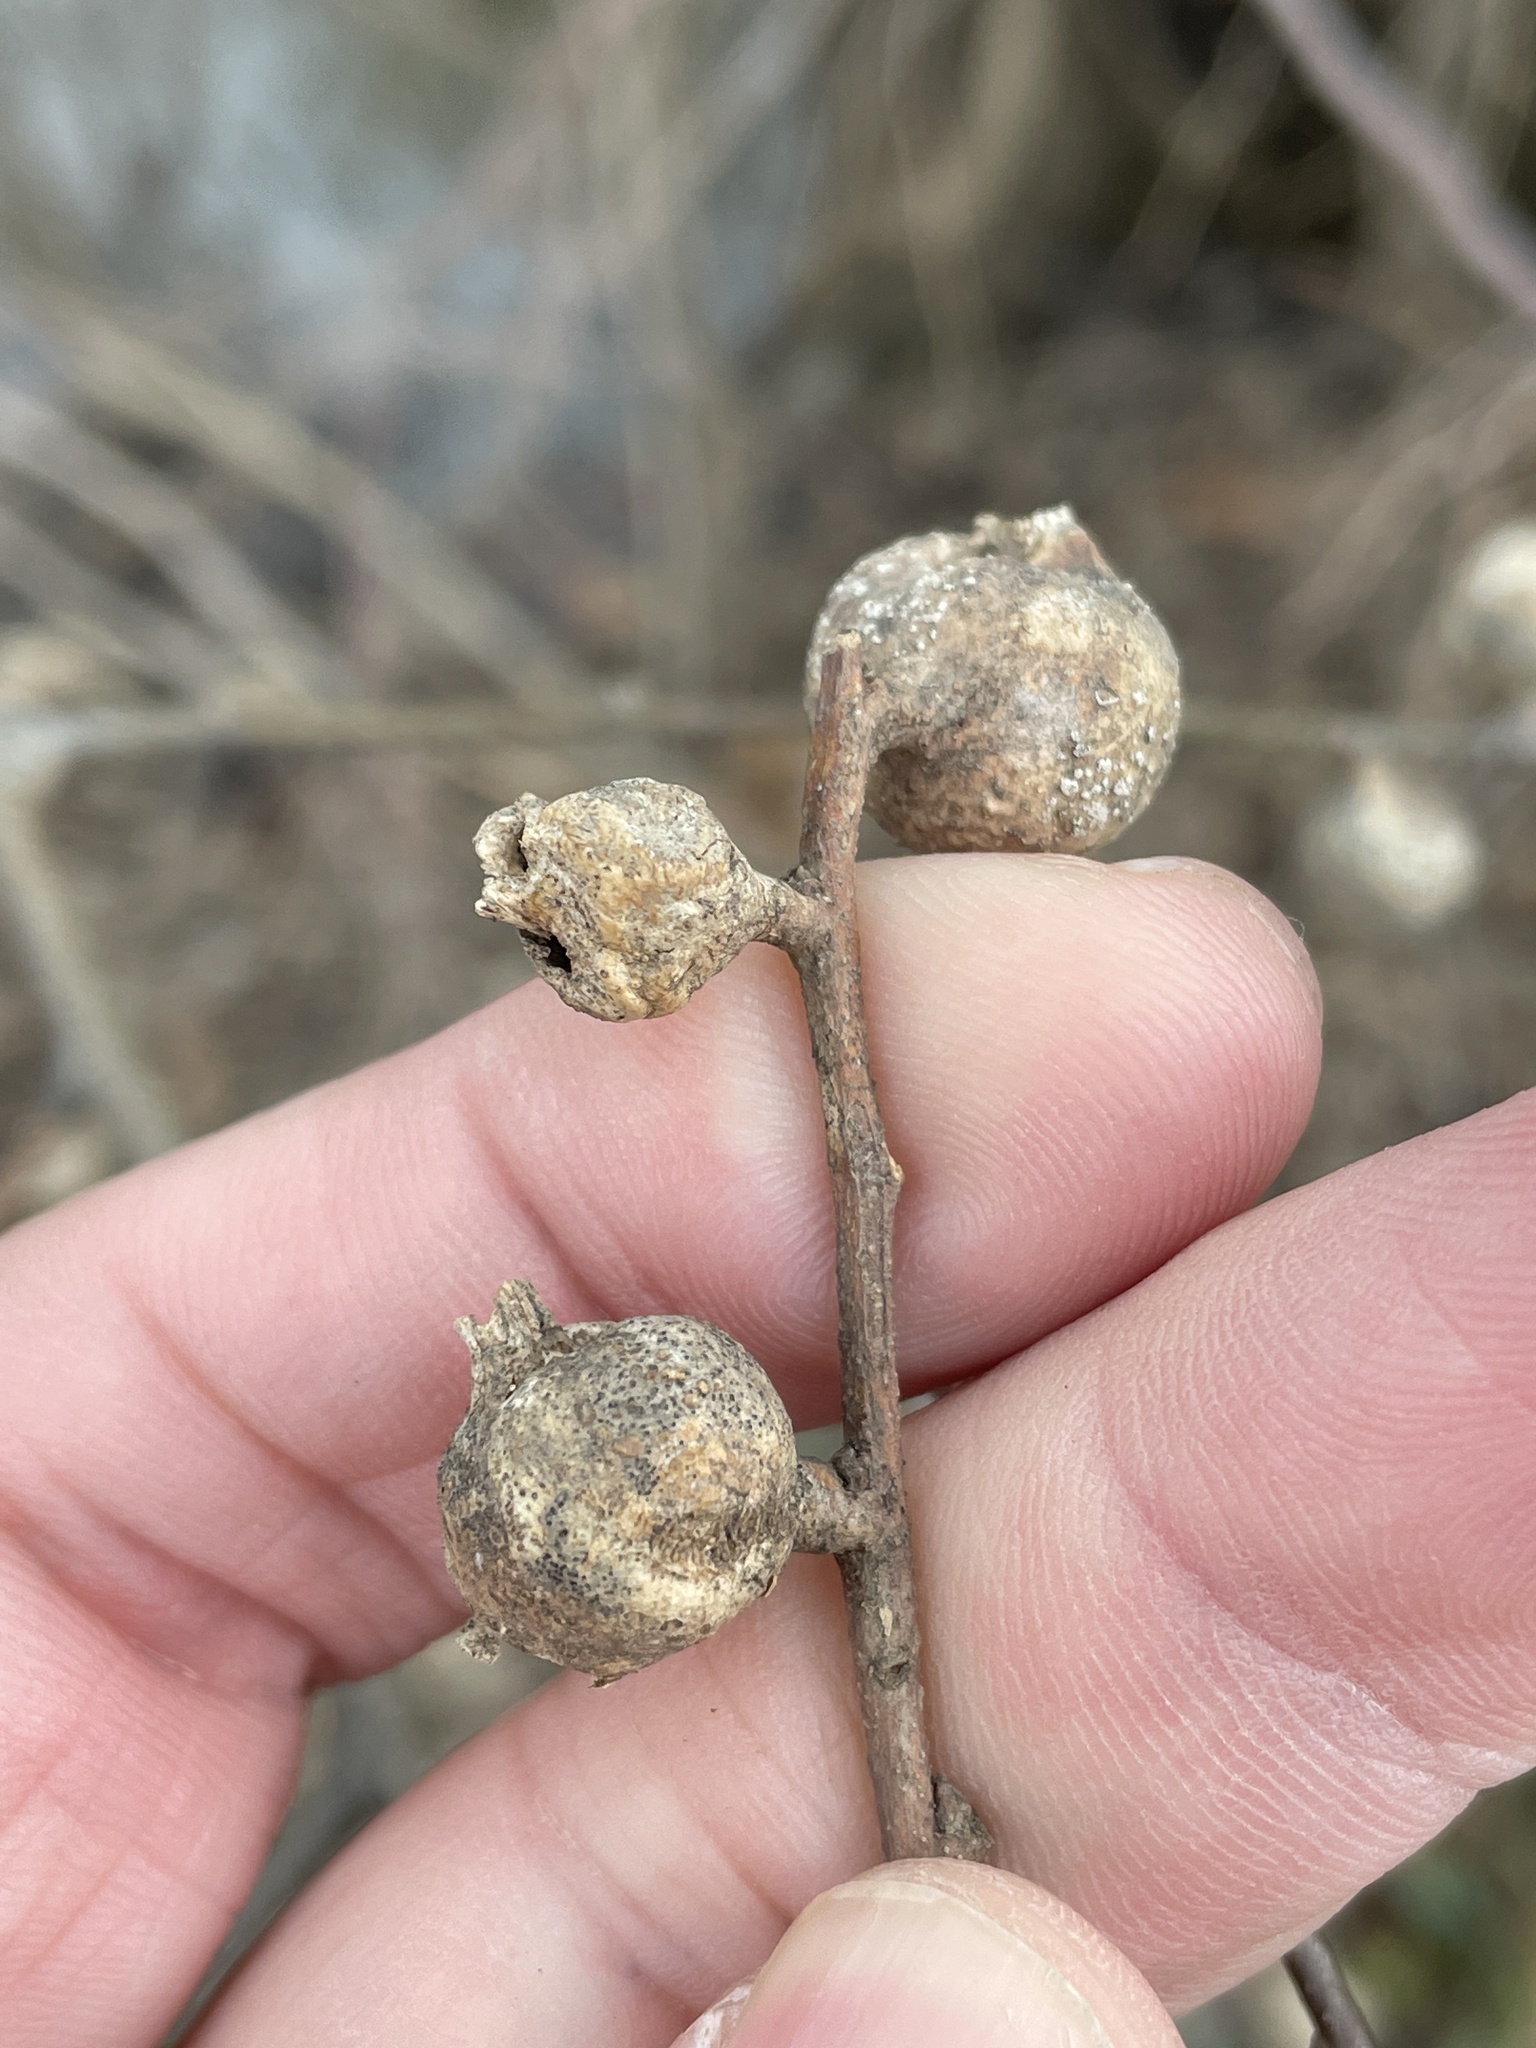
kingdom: Animalia
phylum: Arthropoda
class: Insecta
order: Hemiptera
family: Aphalaridae
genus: Pachypsylla
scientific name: Pachypsylla venusta
